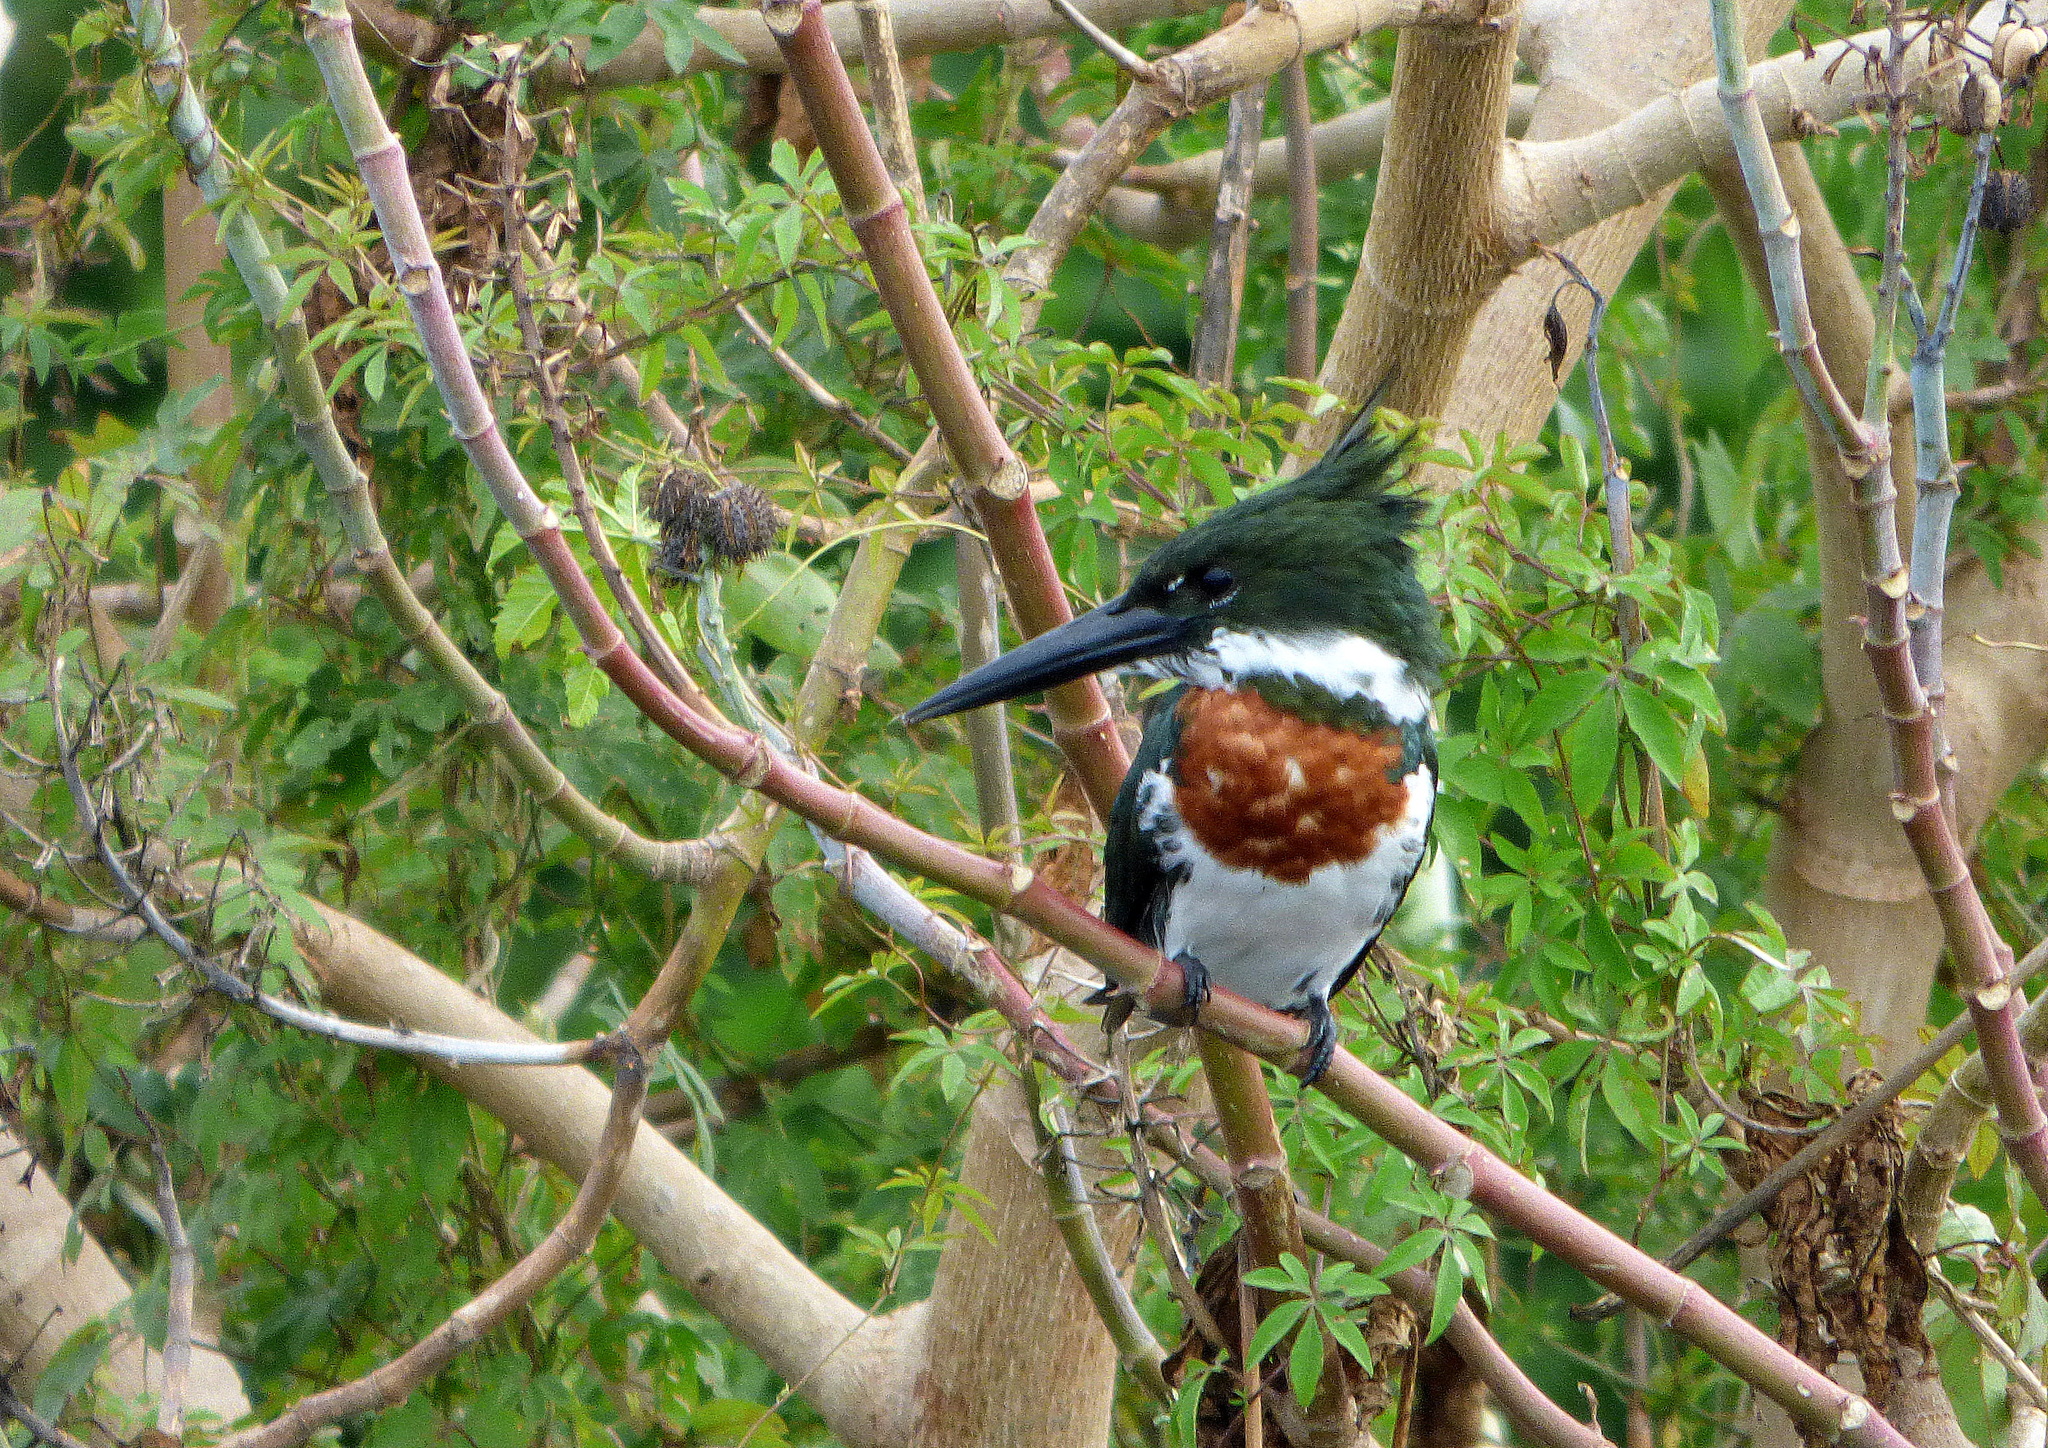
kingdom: Animalia
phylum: Chordata
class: Aves
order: Coraciiformes
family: Alcedinidae
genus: Chloroceryle
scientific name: Chloroceryle amazona
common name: Amazon kingfisher
